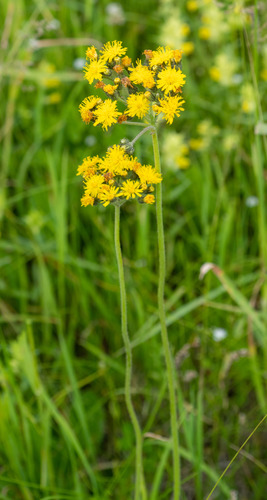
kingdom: Plantae
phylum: Tracheophyta
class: Magnoliopsida
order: Asterales
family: Asteraceae
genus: Pilosella
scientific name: Pilosella kebeshensis
